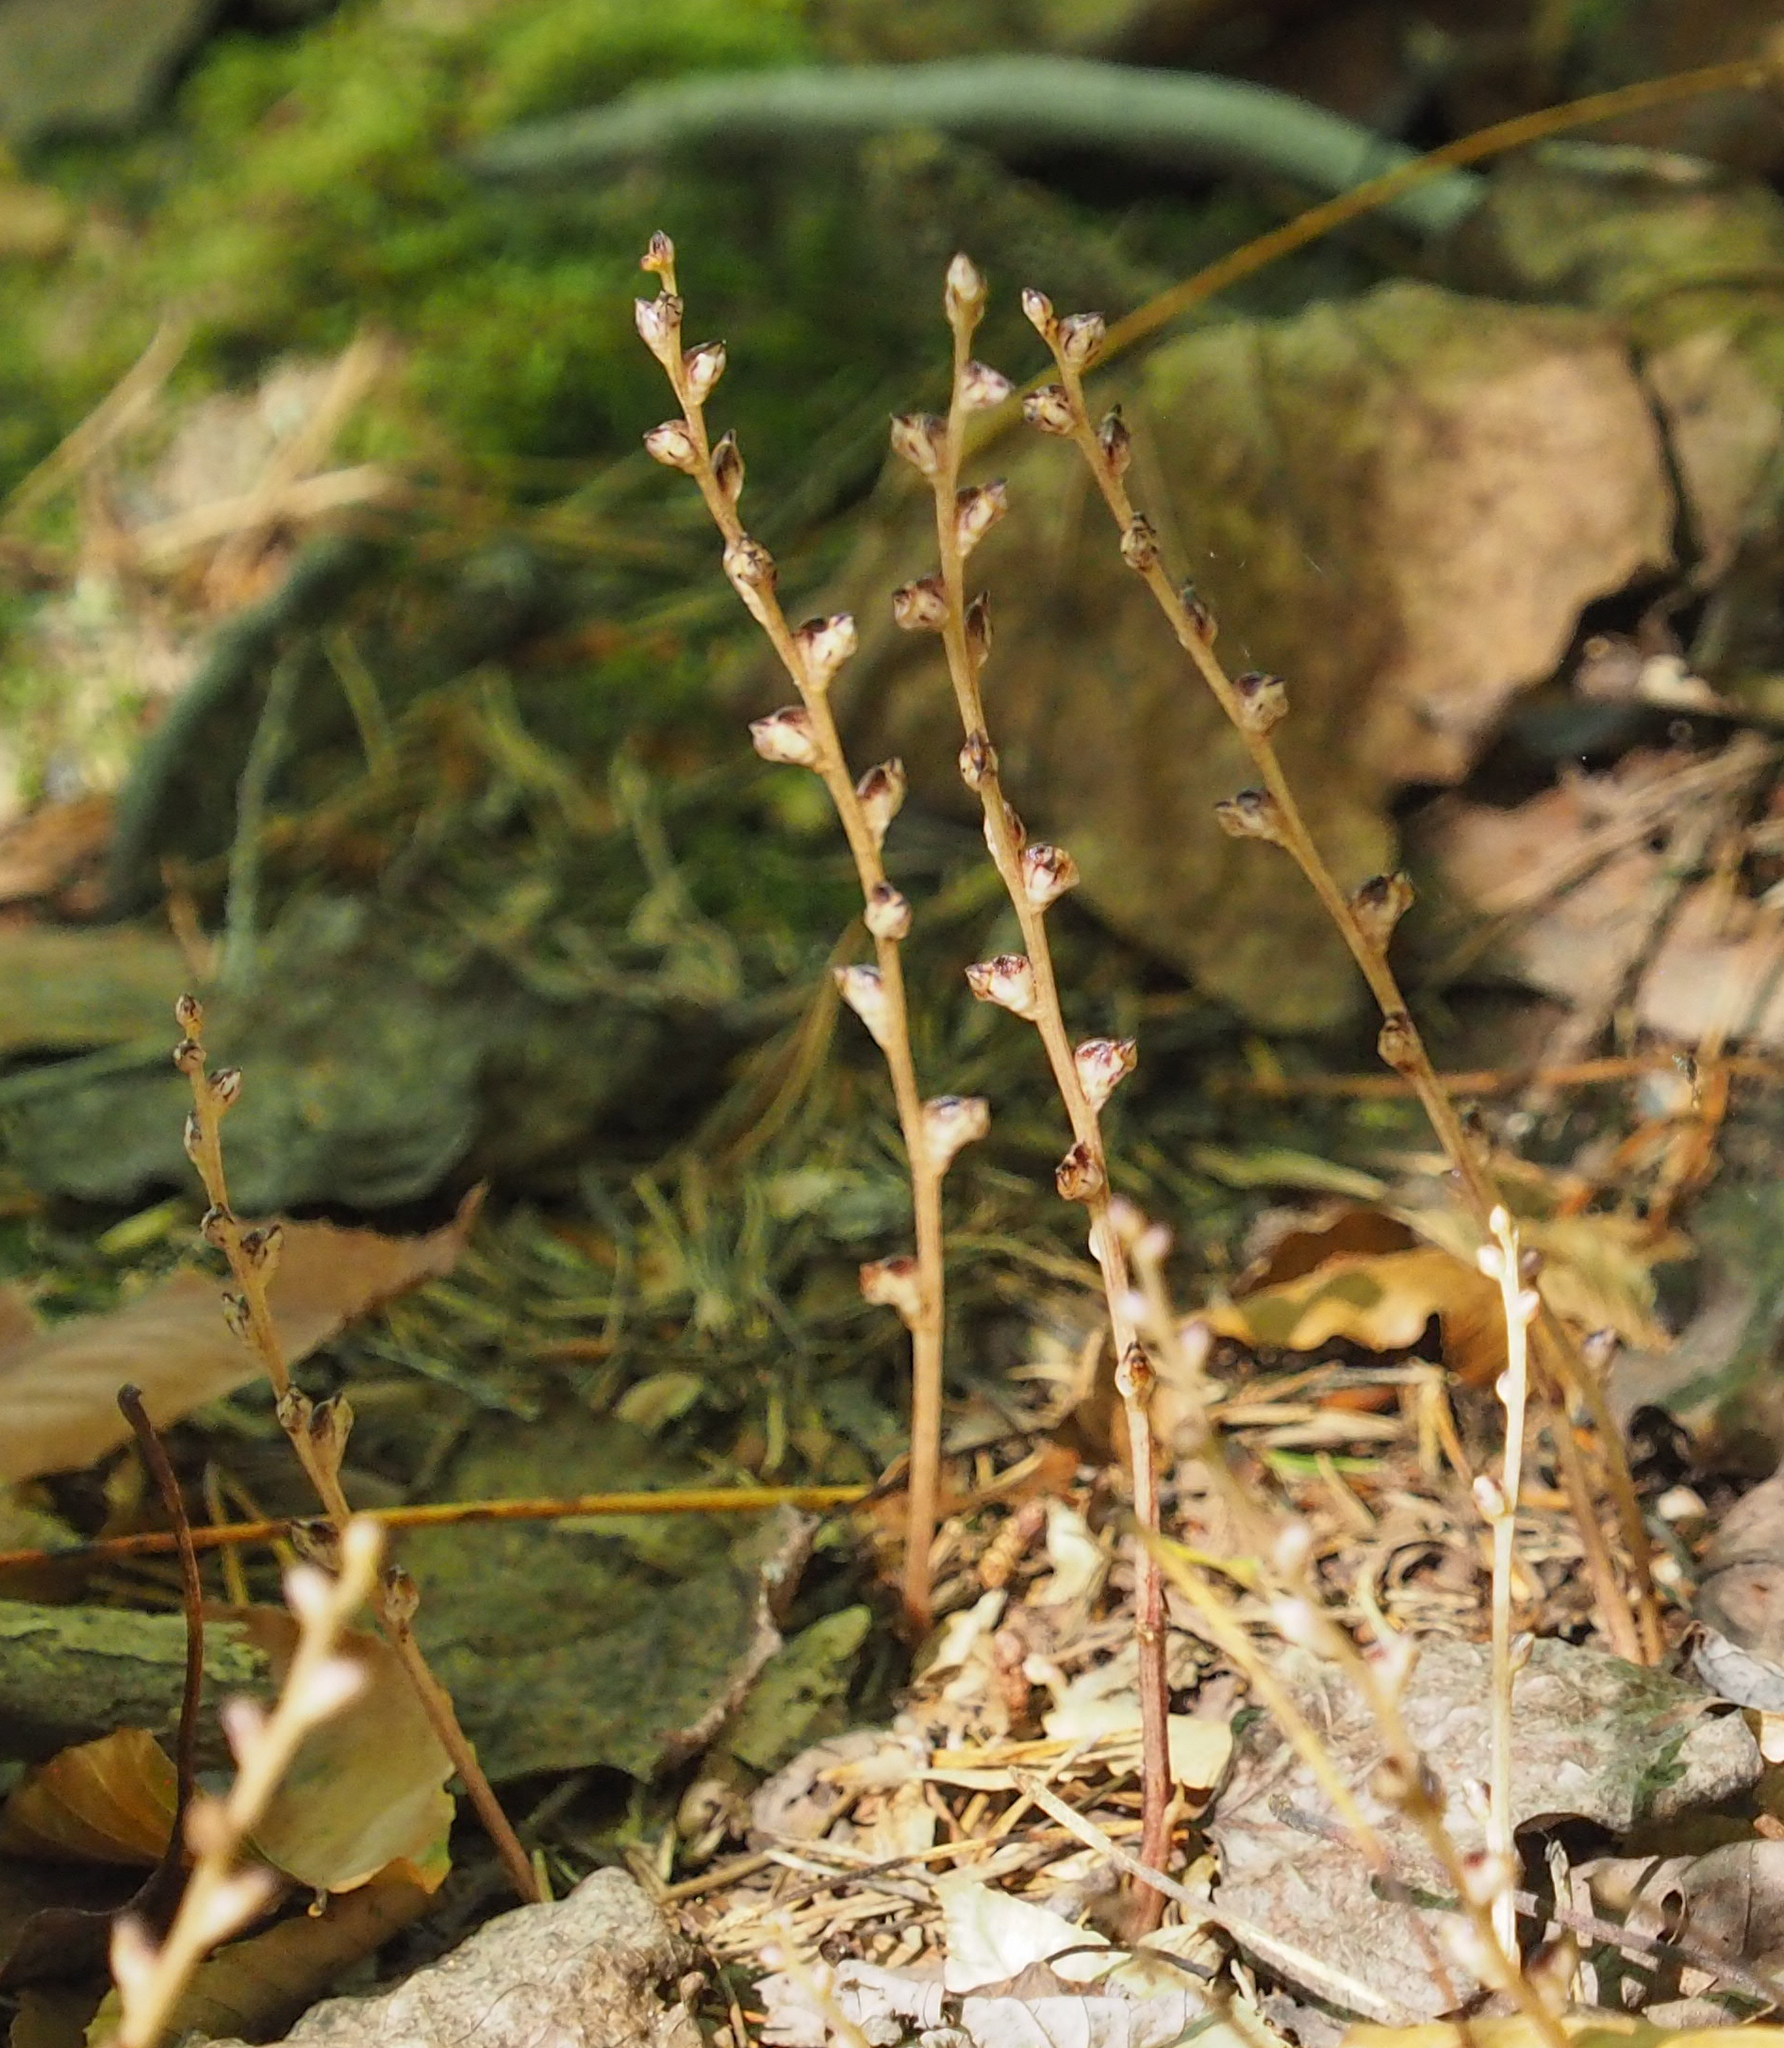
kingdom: Plantae
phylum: Tracheophyta
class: Magnoliopsida
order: Lamiales
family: Orobanchaceae
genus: Epifagus
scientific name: Epifagus virginiana
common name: Beechdrops
